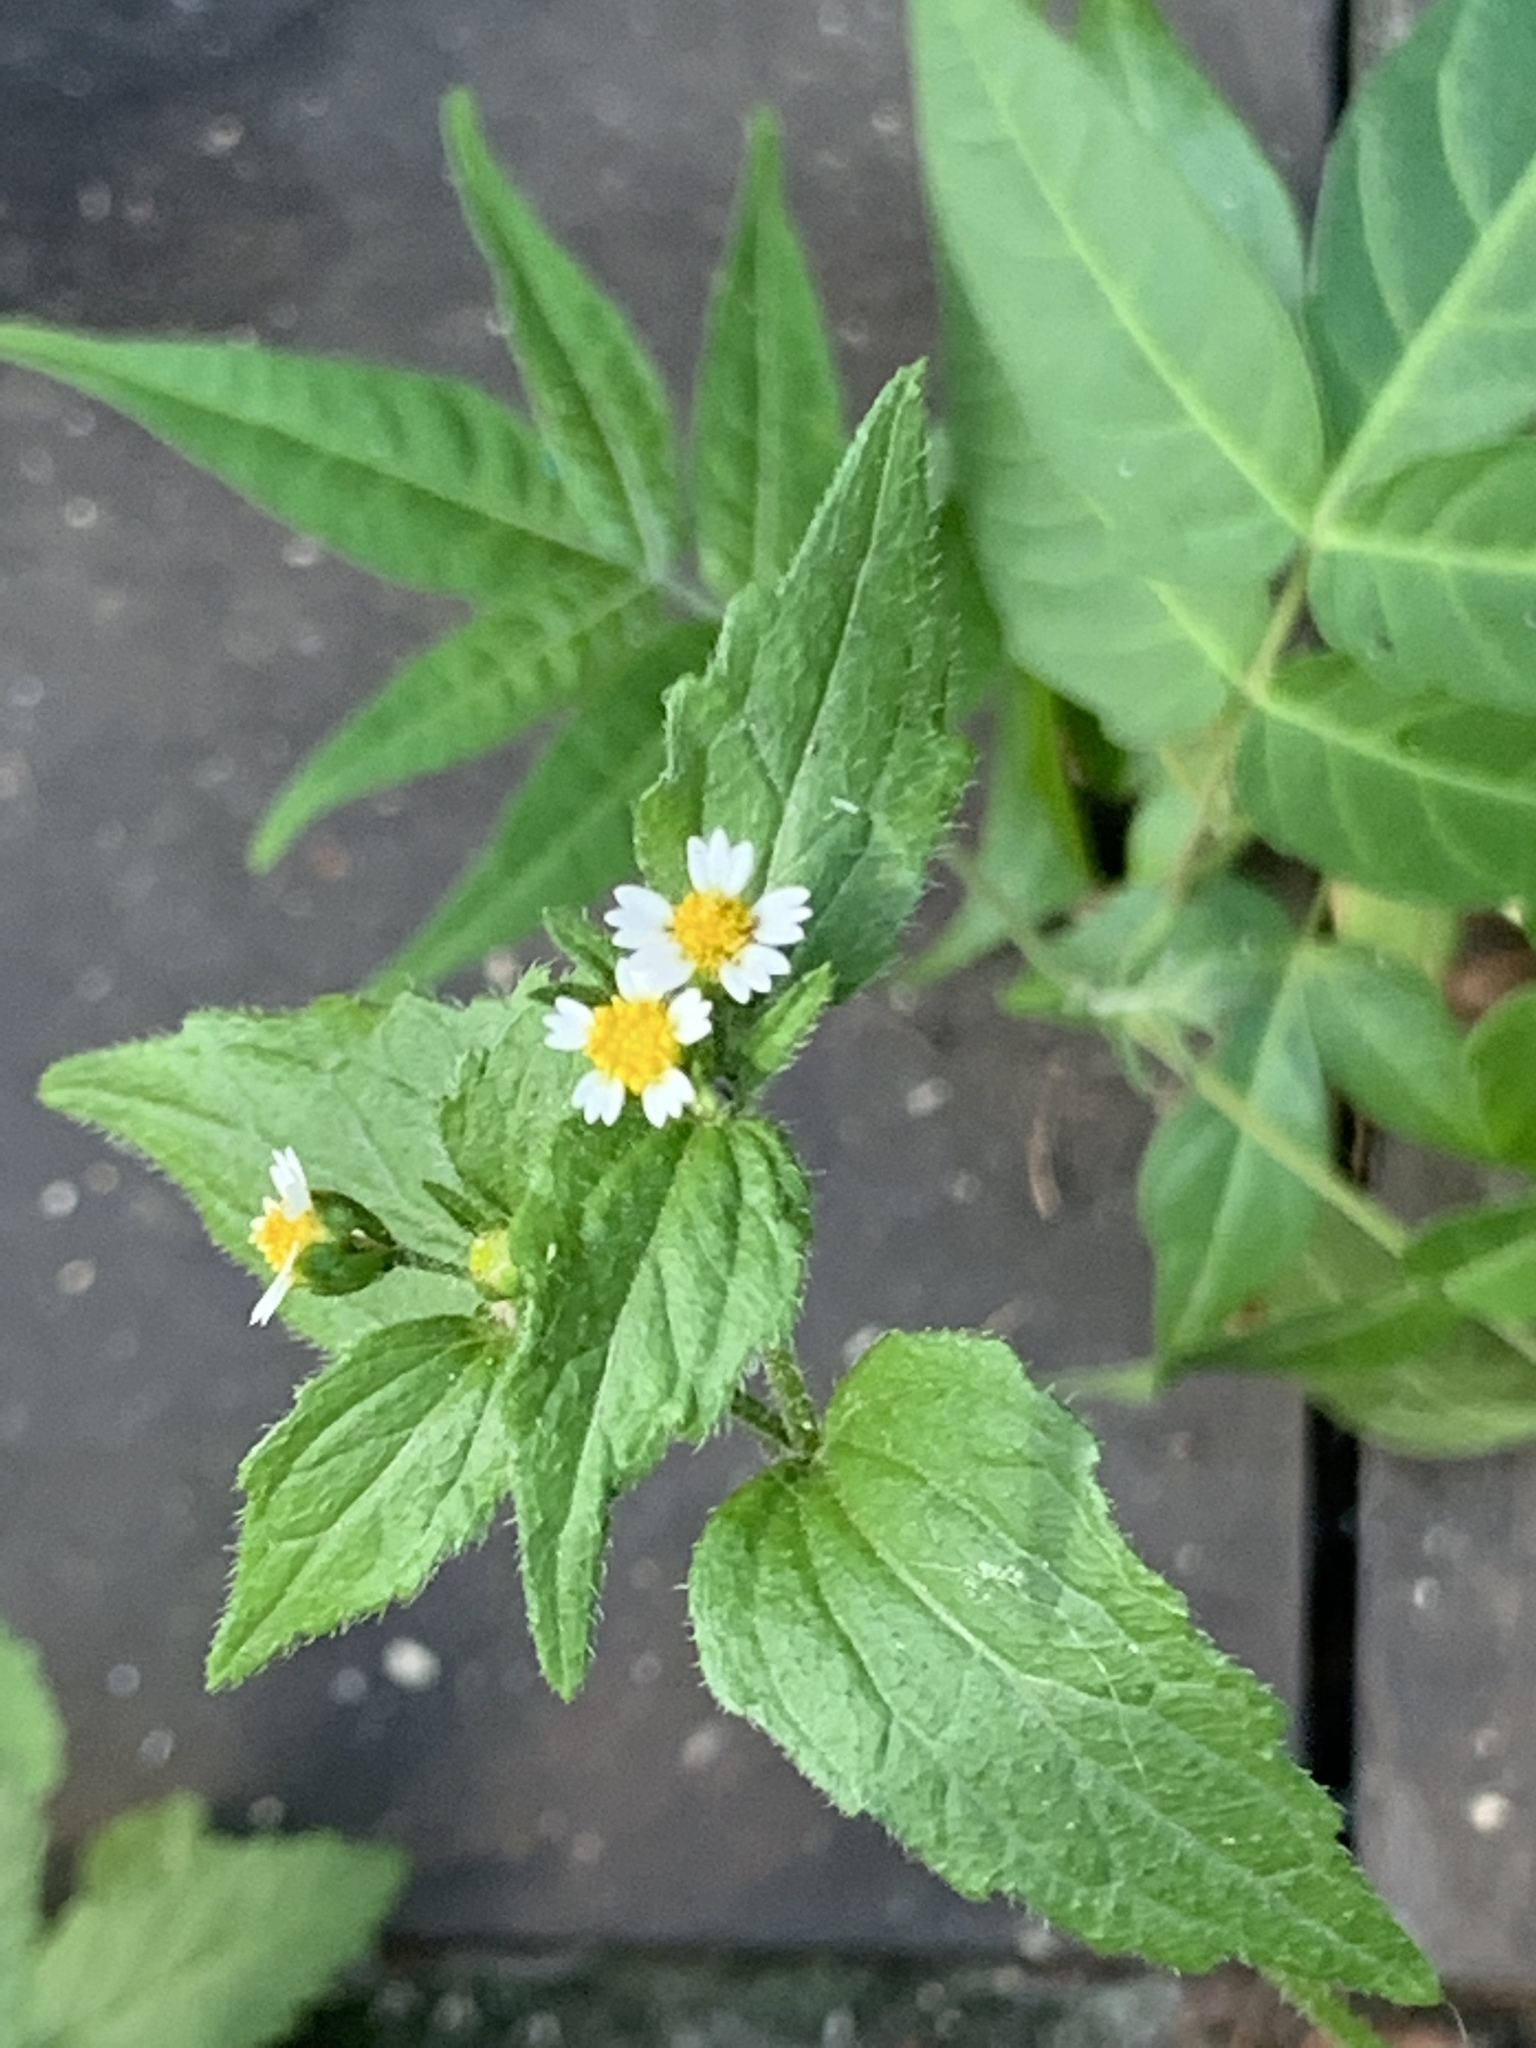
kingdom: Plantae
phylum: Tracheophyta
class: Magnoliopsida
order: Asterales
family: Asteraceae
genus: Galinsoga
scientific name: Galinsoga quadriradiata
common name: Shaggy soldier
